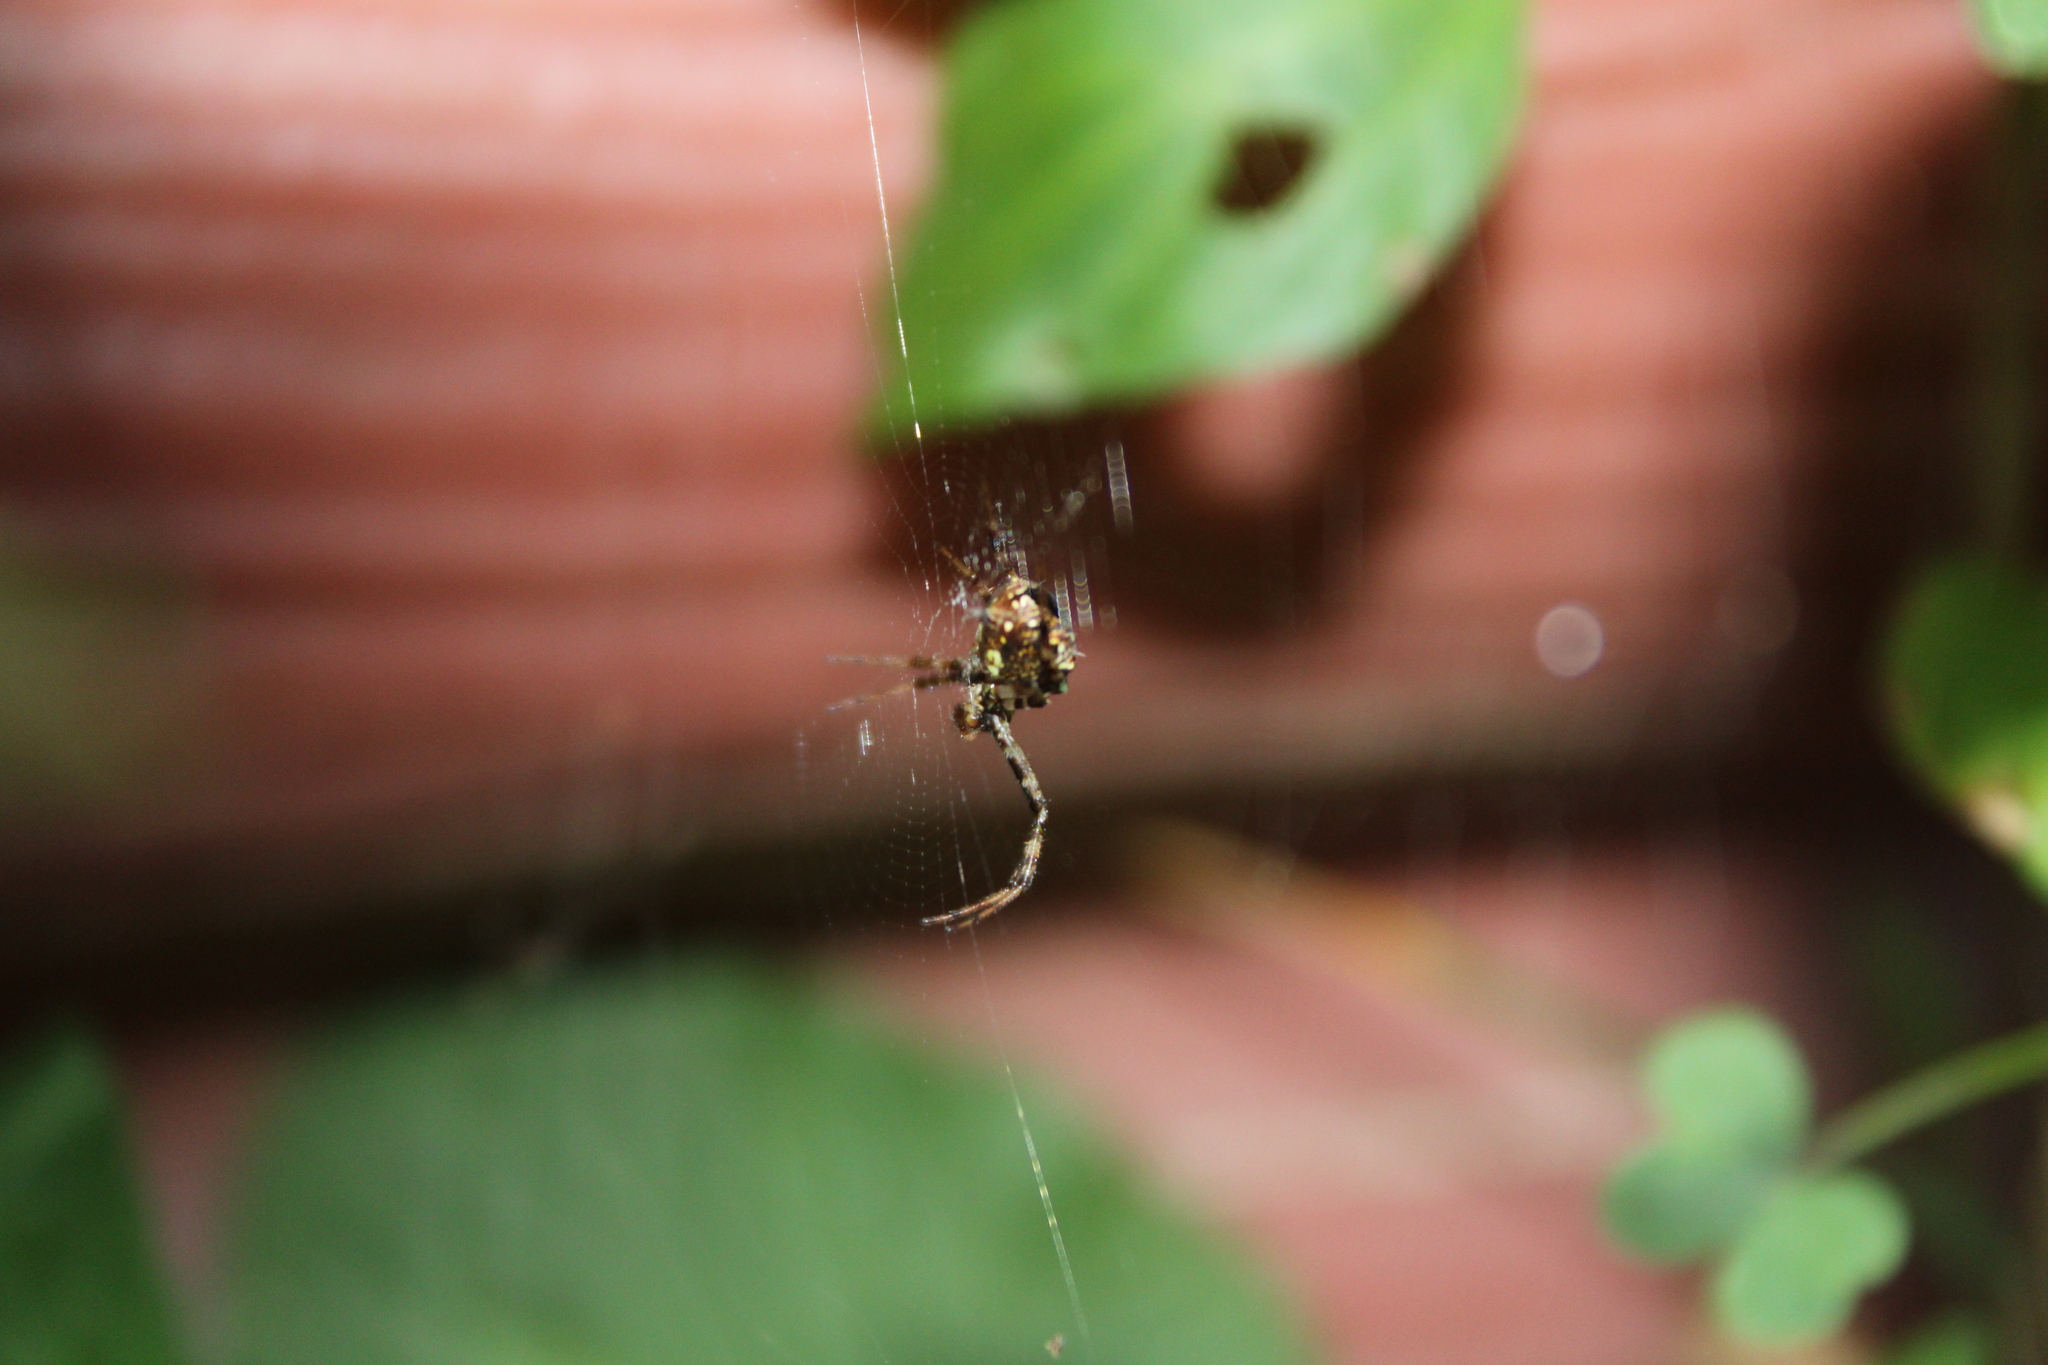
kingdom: Animalia
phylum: Arthropoda
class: Arachnida
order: Araneae
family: Araneidae
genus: Gea
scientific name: Gea heptagon
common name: Orb weavers
